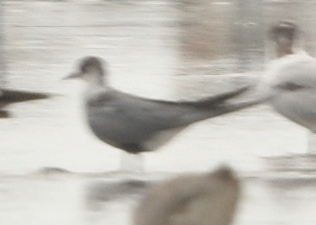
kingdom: Animalia
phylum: Chordata
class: Aves
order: Charadriiformes
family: Laridae
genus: Chlidonias
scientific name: Chlidonias niger
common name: Black tern
